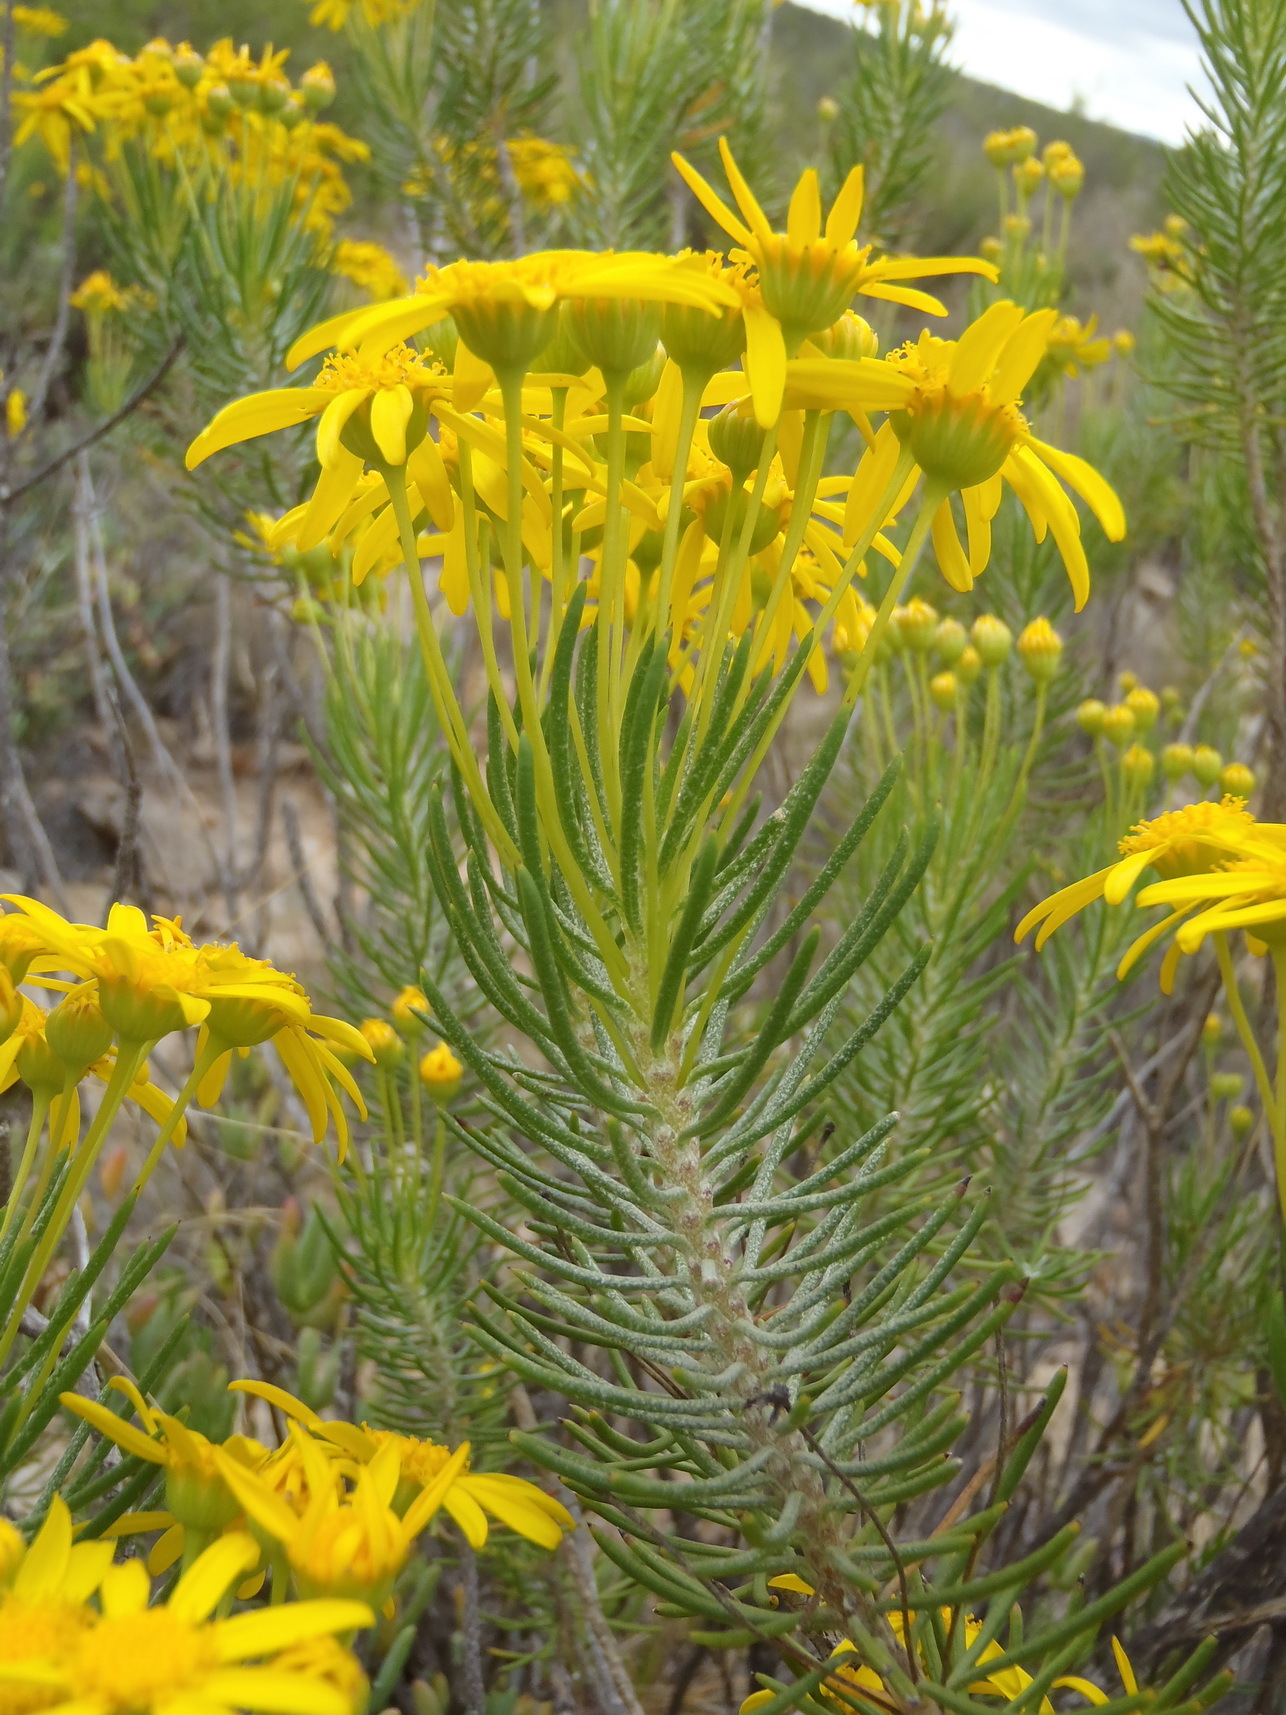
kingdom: Plantae
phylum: Tracheophyta
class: Magnoliopsida
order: Asterales
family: Asteraceae
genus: Euryops
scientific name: Euryops rehmannii
